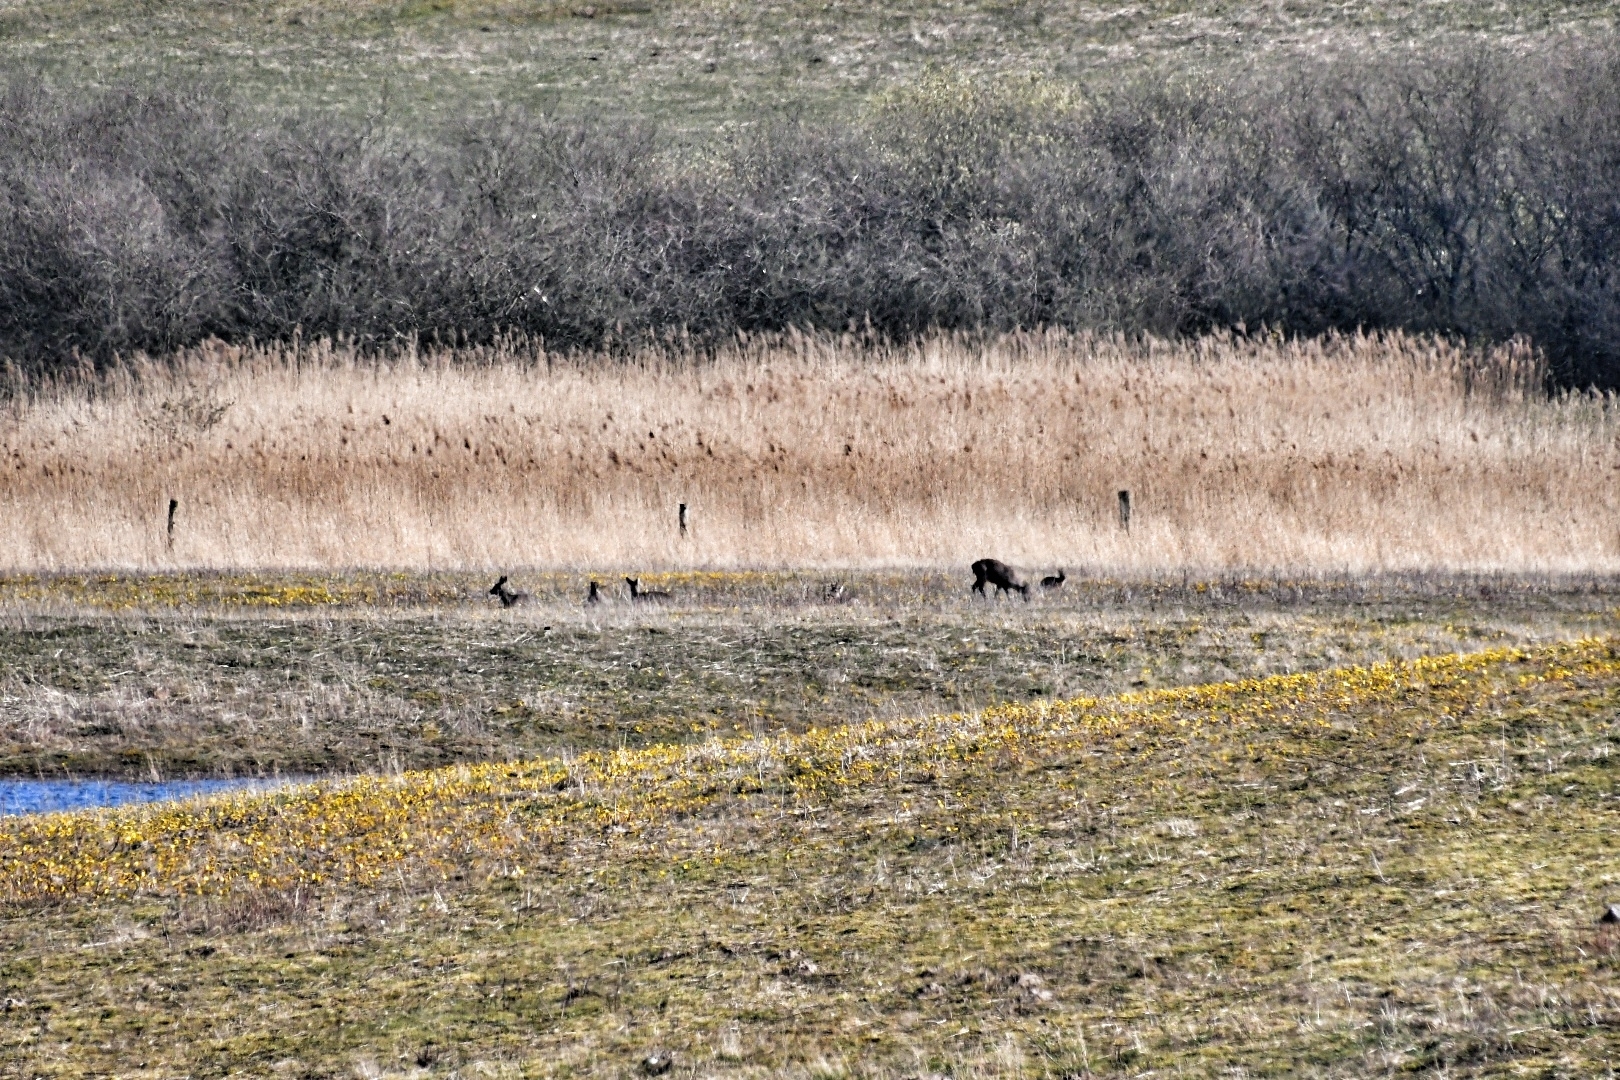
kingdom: Animalia
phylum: Chordata
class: Mammalia
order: Artiodactyla
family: Cervidae
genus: Capreolus
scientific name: Capreolus capreolus
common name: Western roe deer
